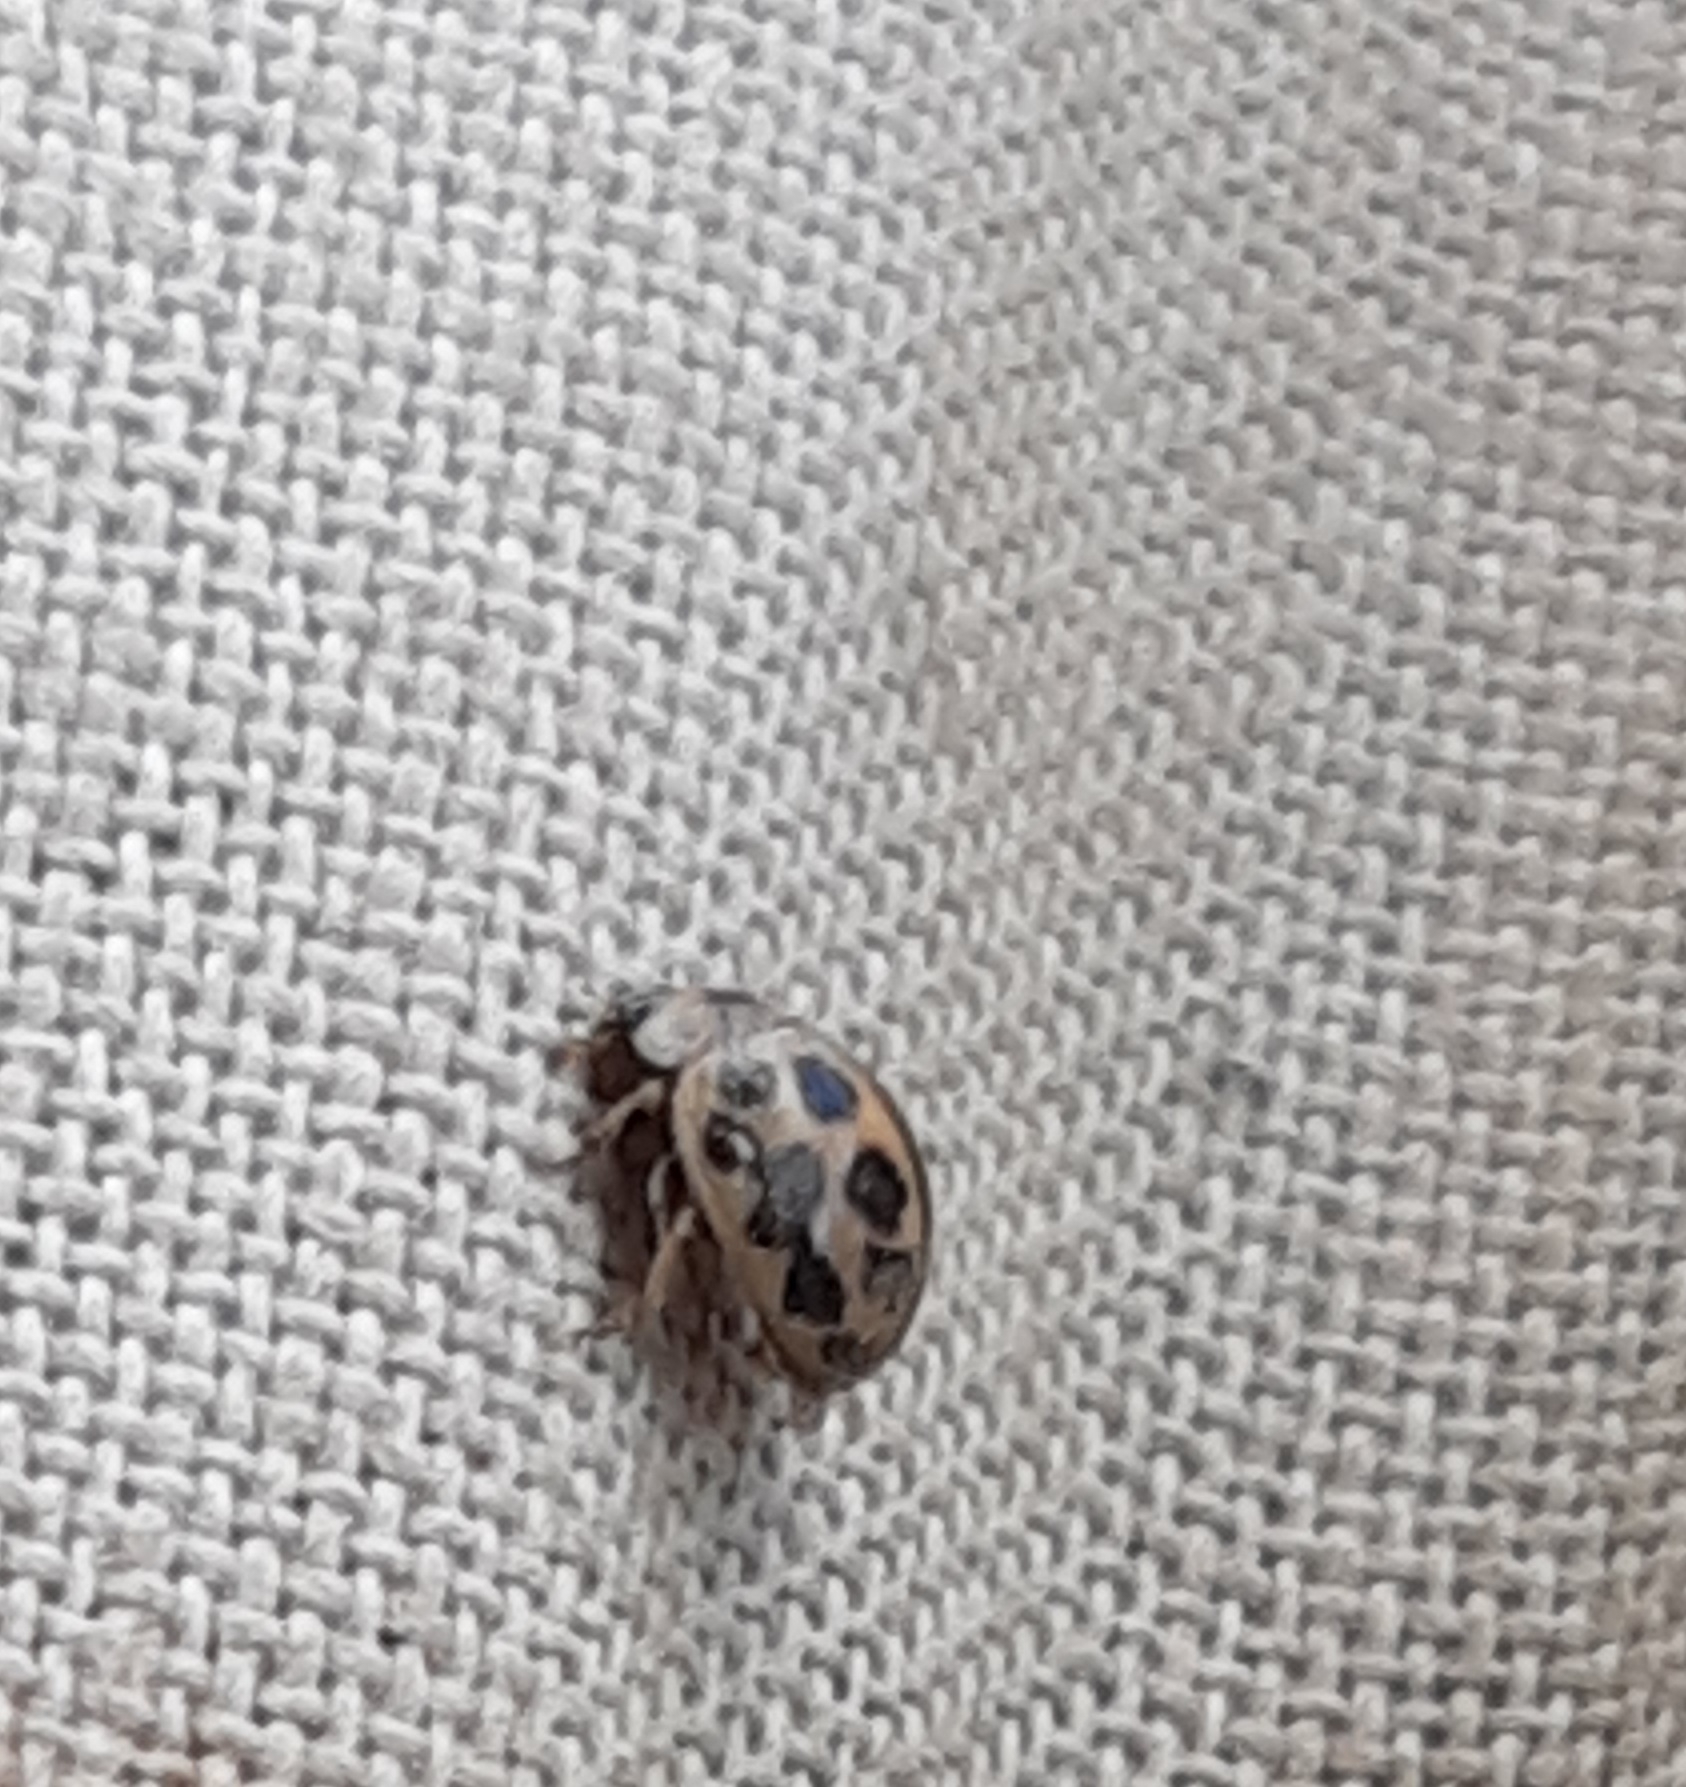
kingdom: Animalia
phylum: Arthropoda
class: Insecta
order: Coleoptera
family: Coccinellidae
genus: Tytthaspis
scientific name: Tytthaspis sedecimpunctata
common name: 16-spot ladybird
